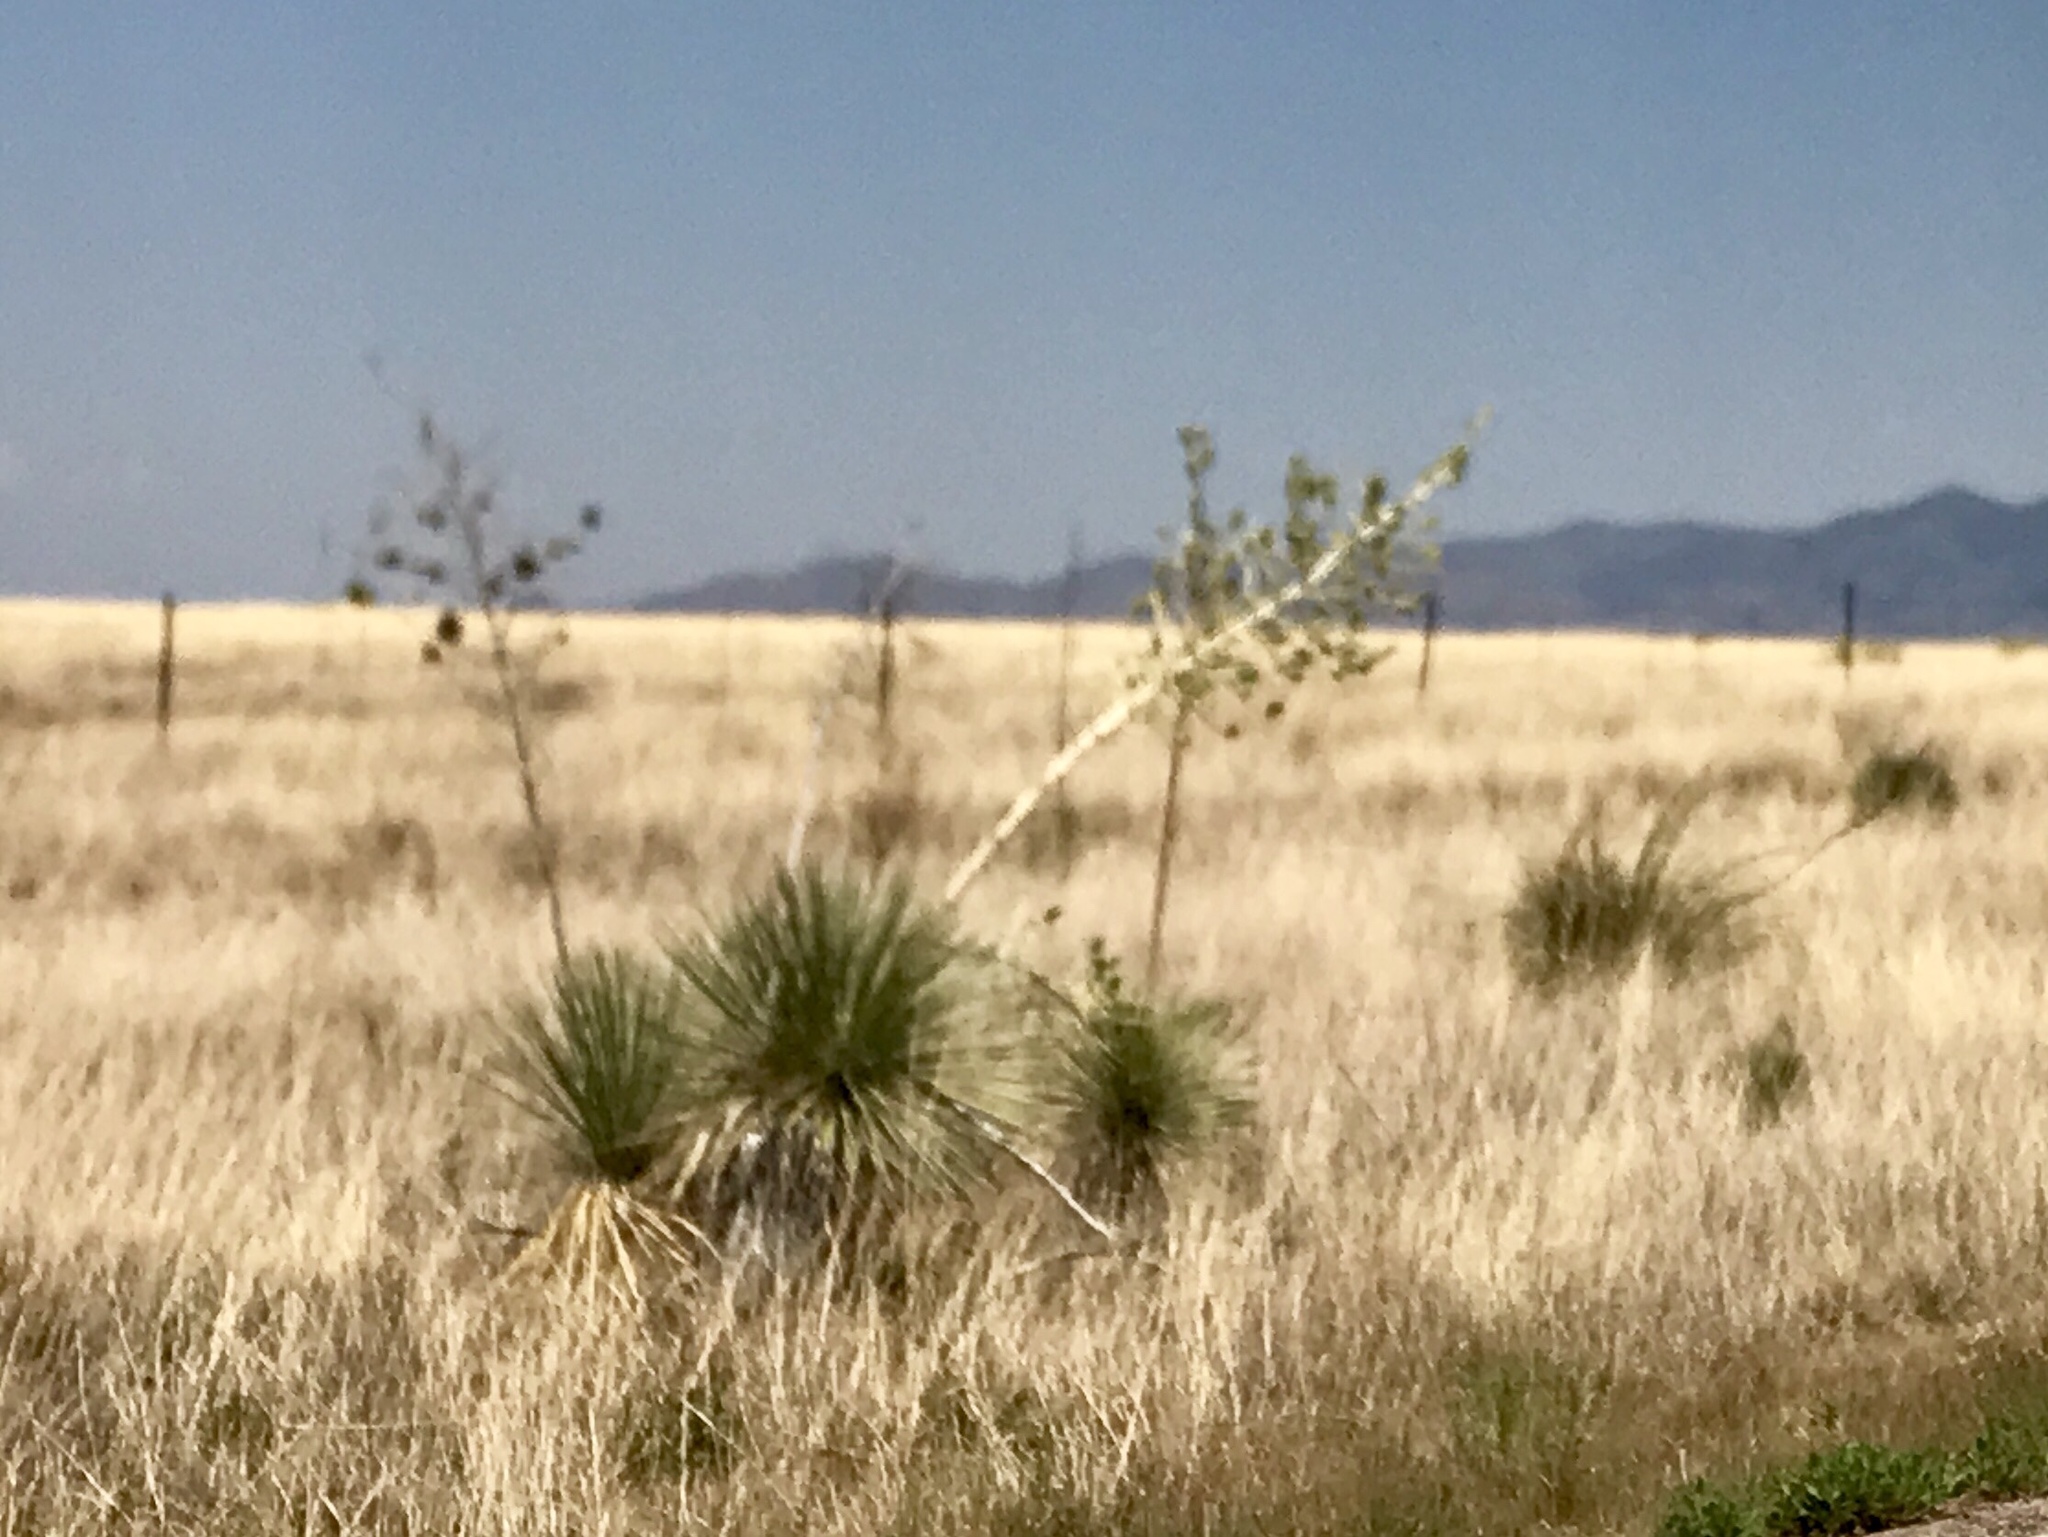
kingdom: Plantae
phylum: Tracheophyta
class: Liliopsida
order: Asparagales
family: Asparagaceae
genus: Yucca
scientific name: Yucca elata
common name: Palmella
